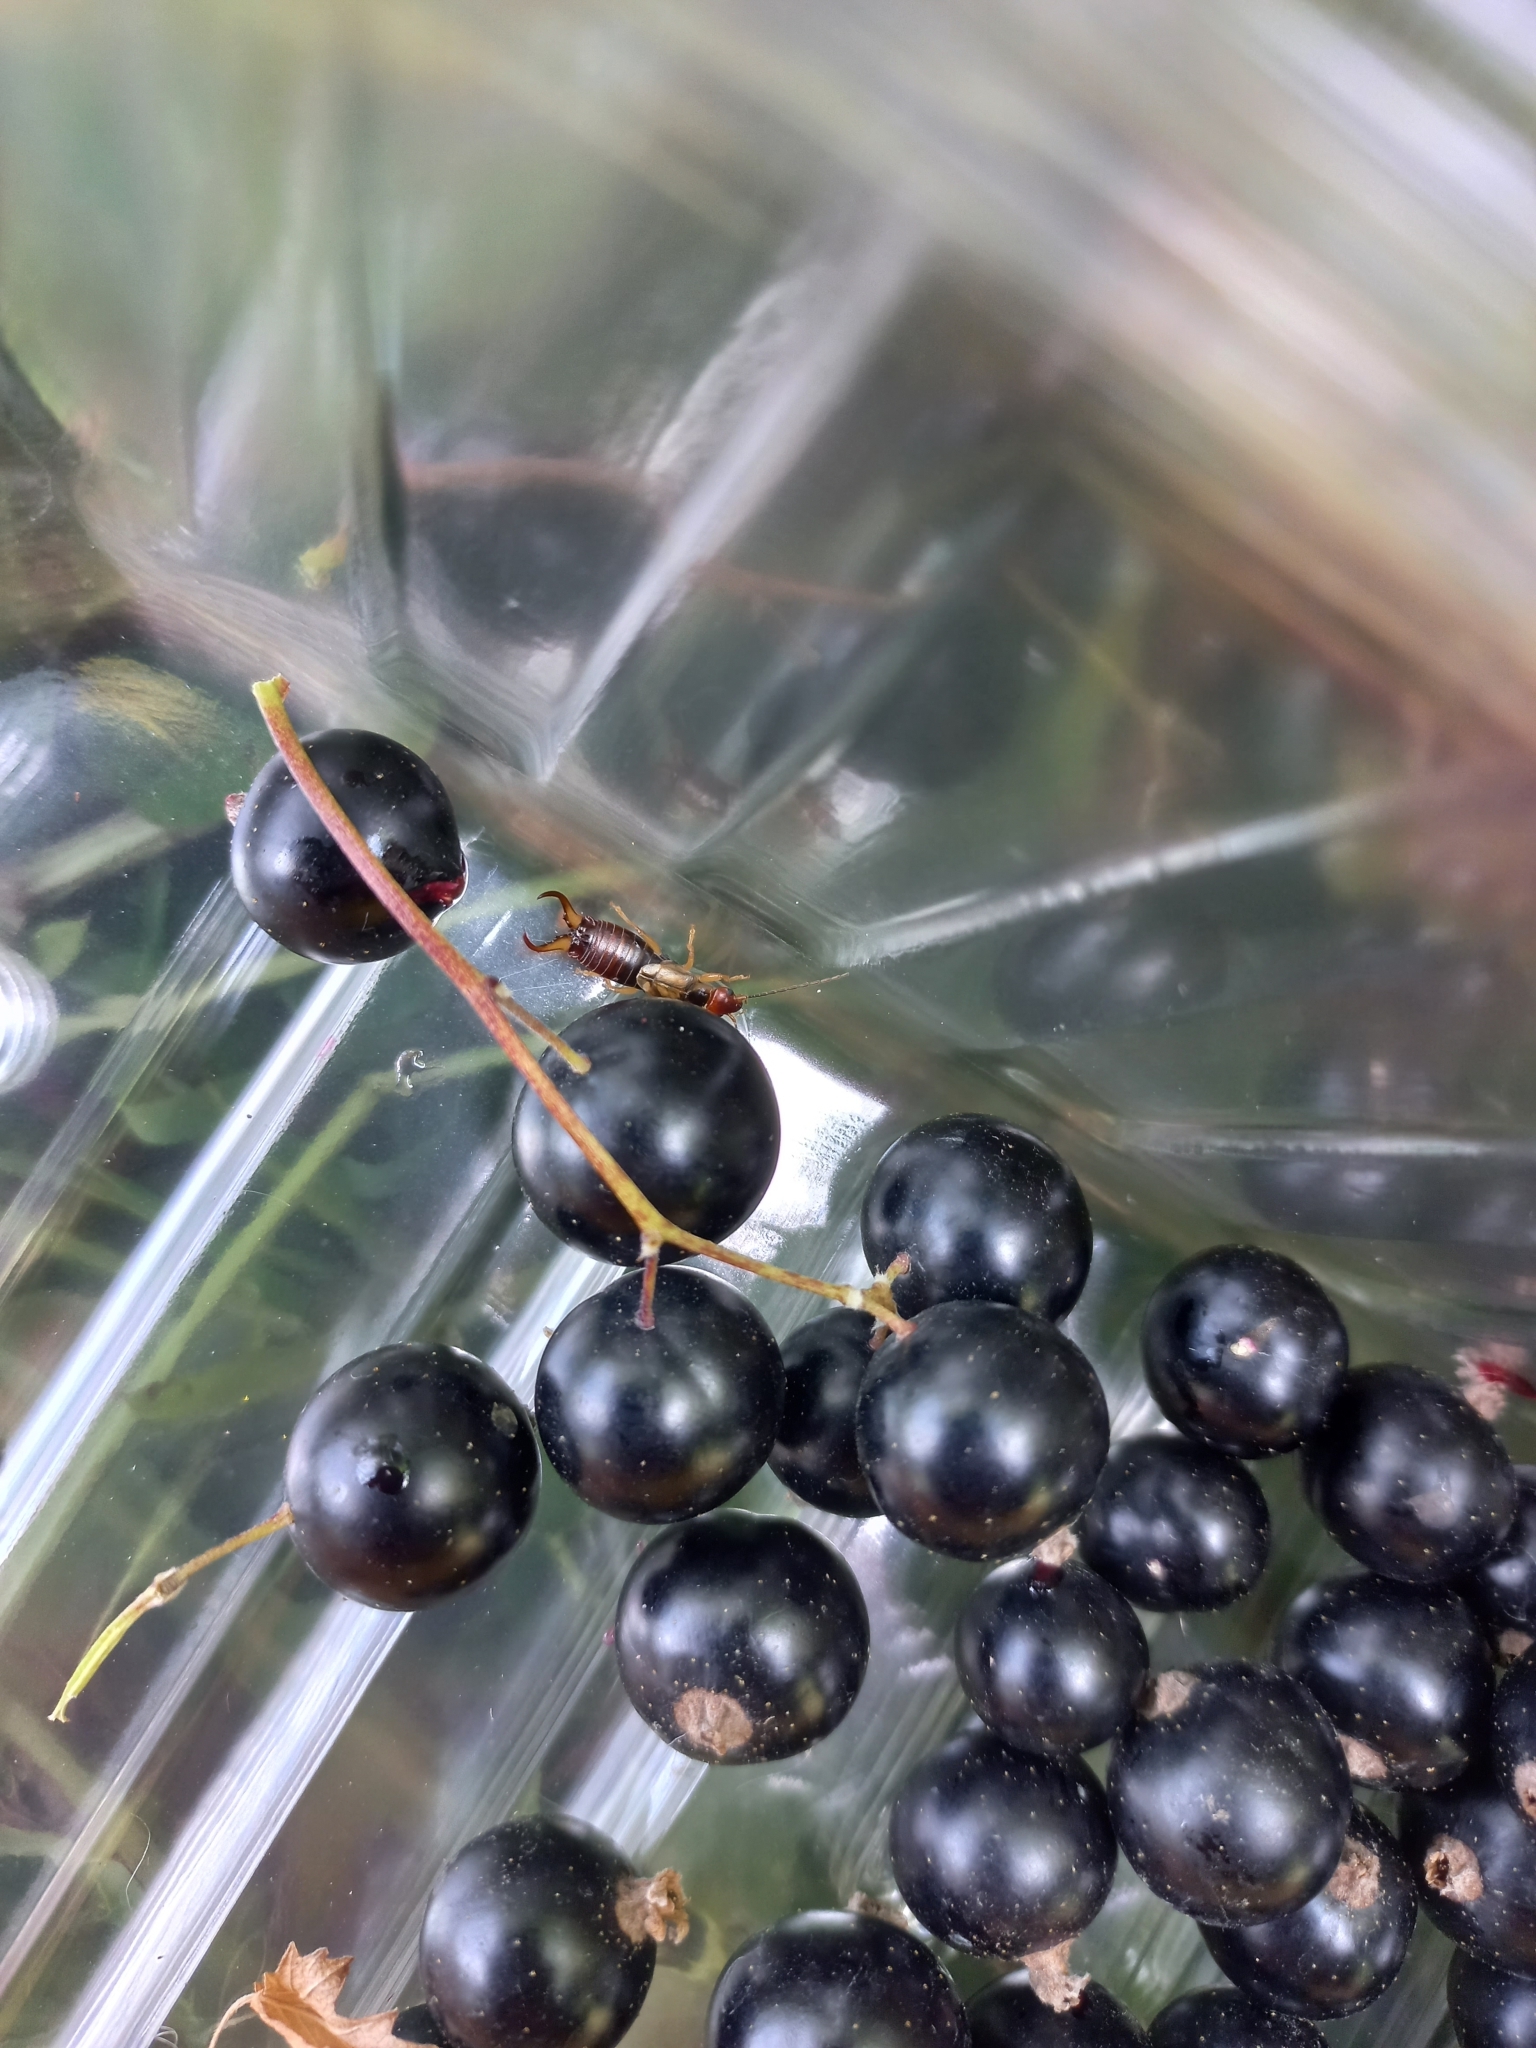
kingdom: Animalia
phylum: Arthropoda
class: Insecta
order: Dermaptera
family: Forficulidae
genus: Forficula
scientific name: Forficula
